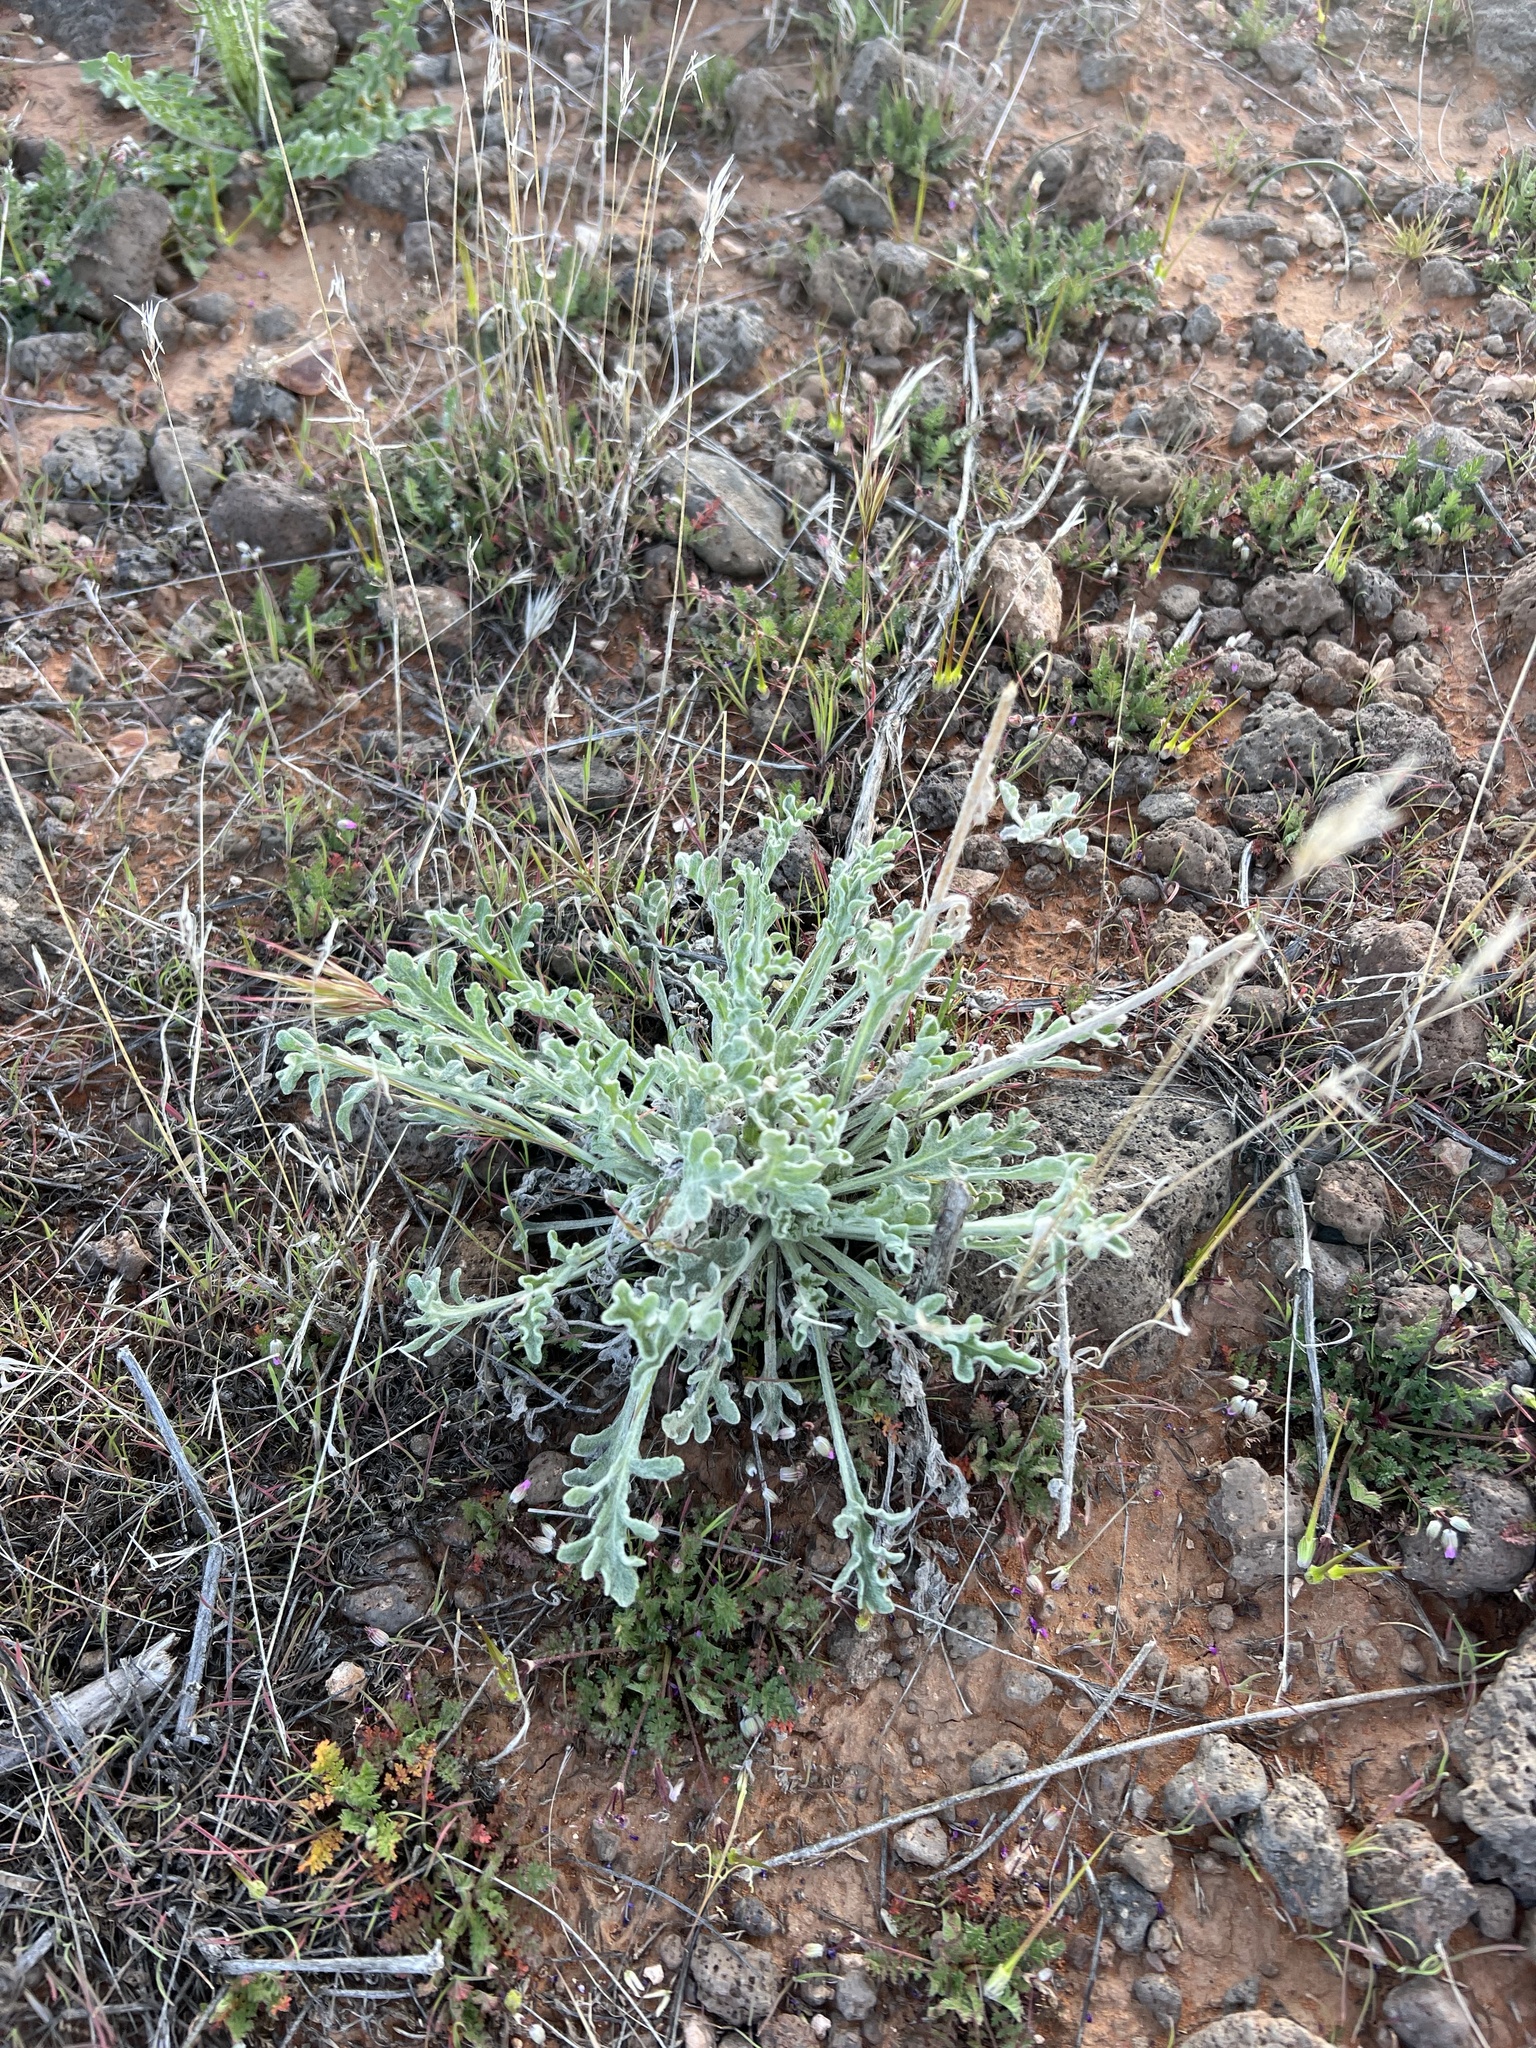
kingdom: Plantae
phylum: Tracheophyta
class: Magnoliopsida
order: Asterales
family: Asteraceae
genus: Baileya
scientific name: Baileya multiradiata
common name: Desert-marigold
